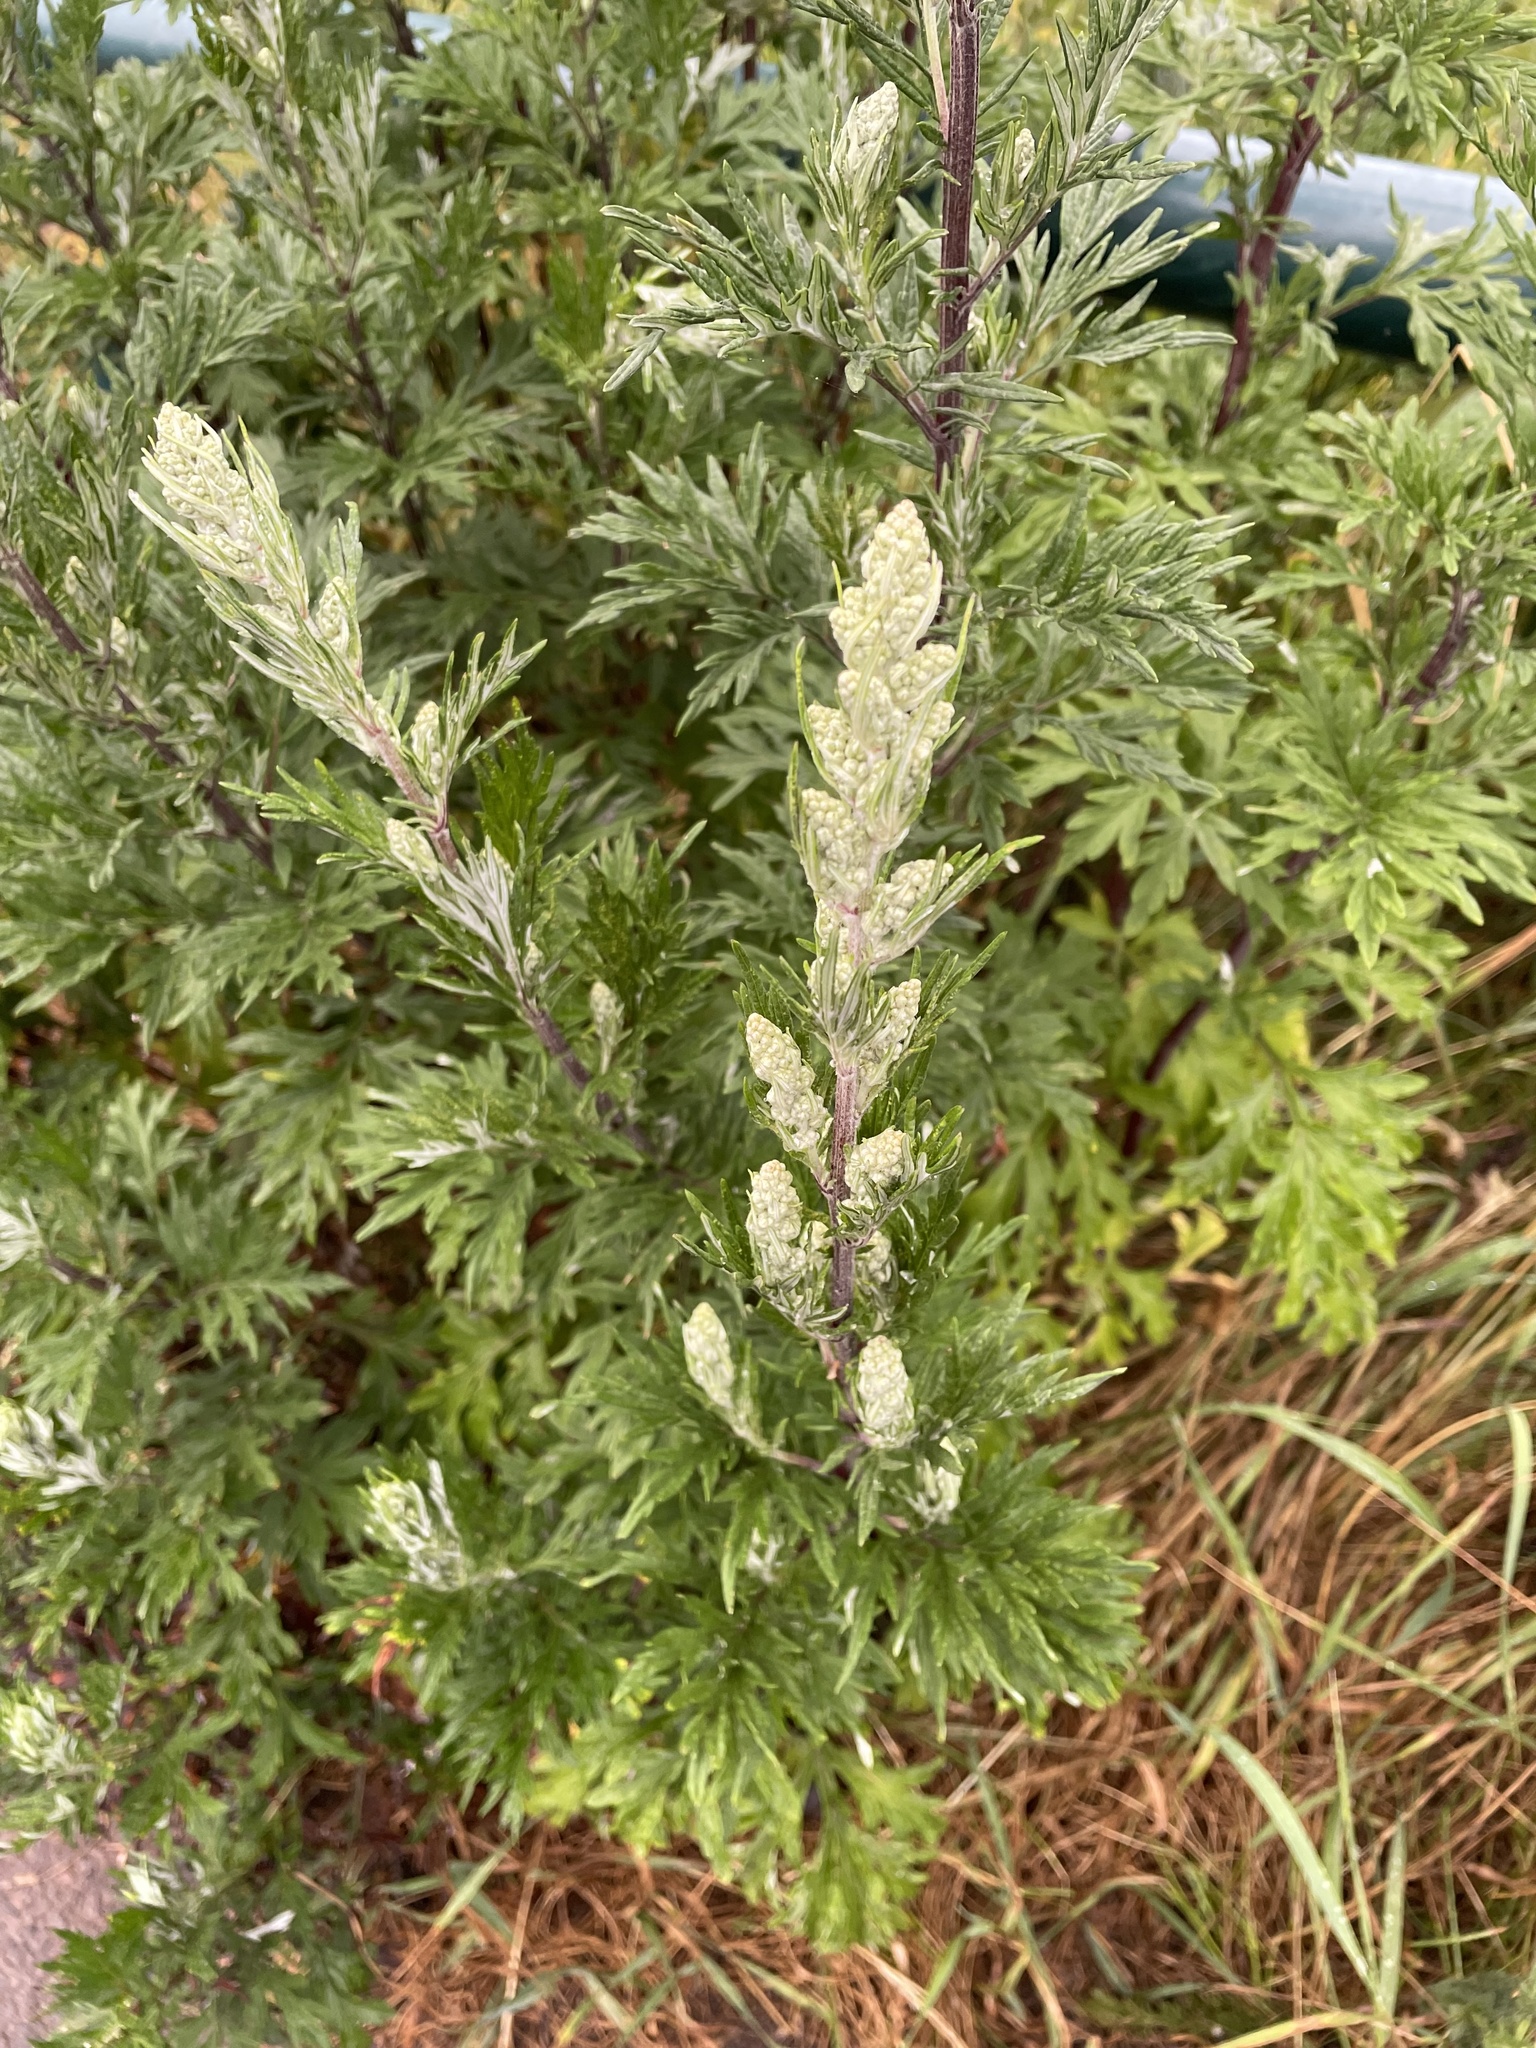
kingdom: Plantae
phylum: Tracheophyta
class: Magnoliopsida
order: Asterales
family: Asteraceae
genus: Artemisia
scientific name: Artemisia vulgaris
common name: Mugwort
